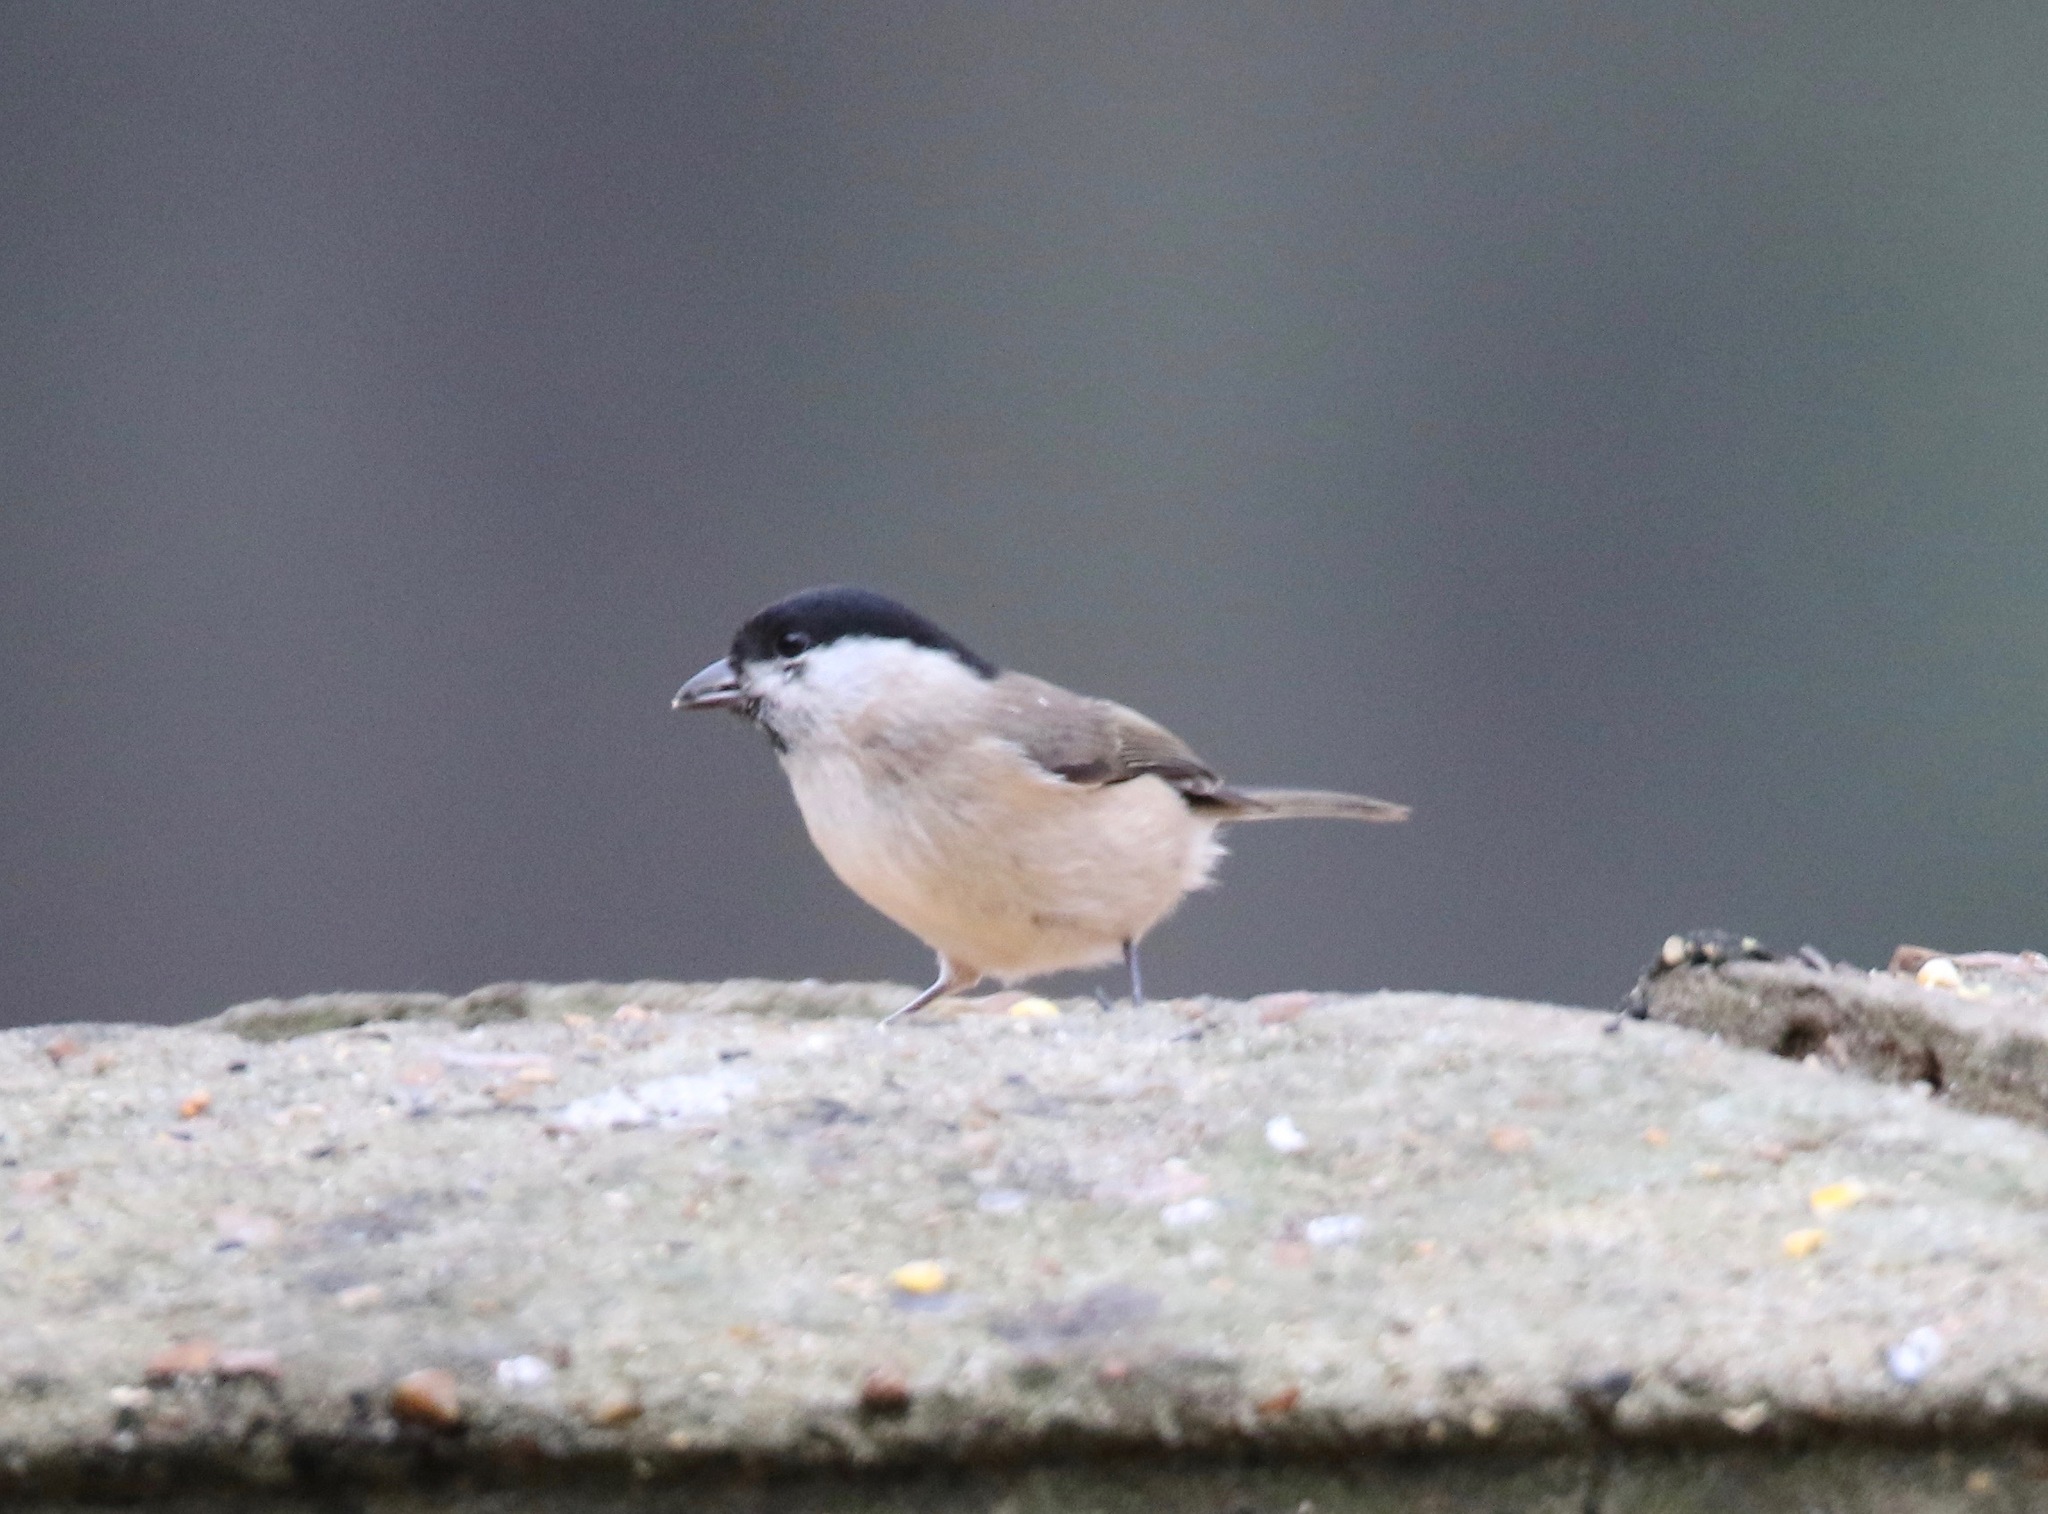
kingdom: Animalia
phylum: Chordata
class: Aves
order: Passeriformes
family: Paridae
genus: Poecile
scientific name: Poecile palustris
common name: Marsh tit
